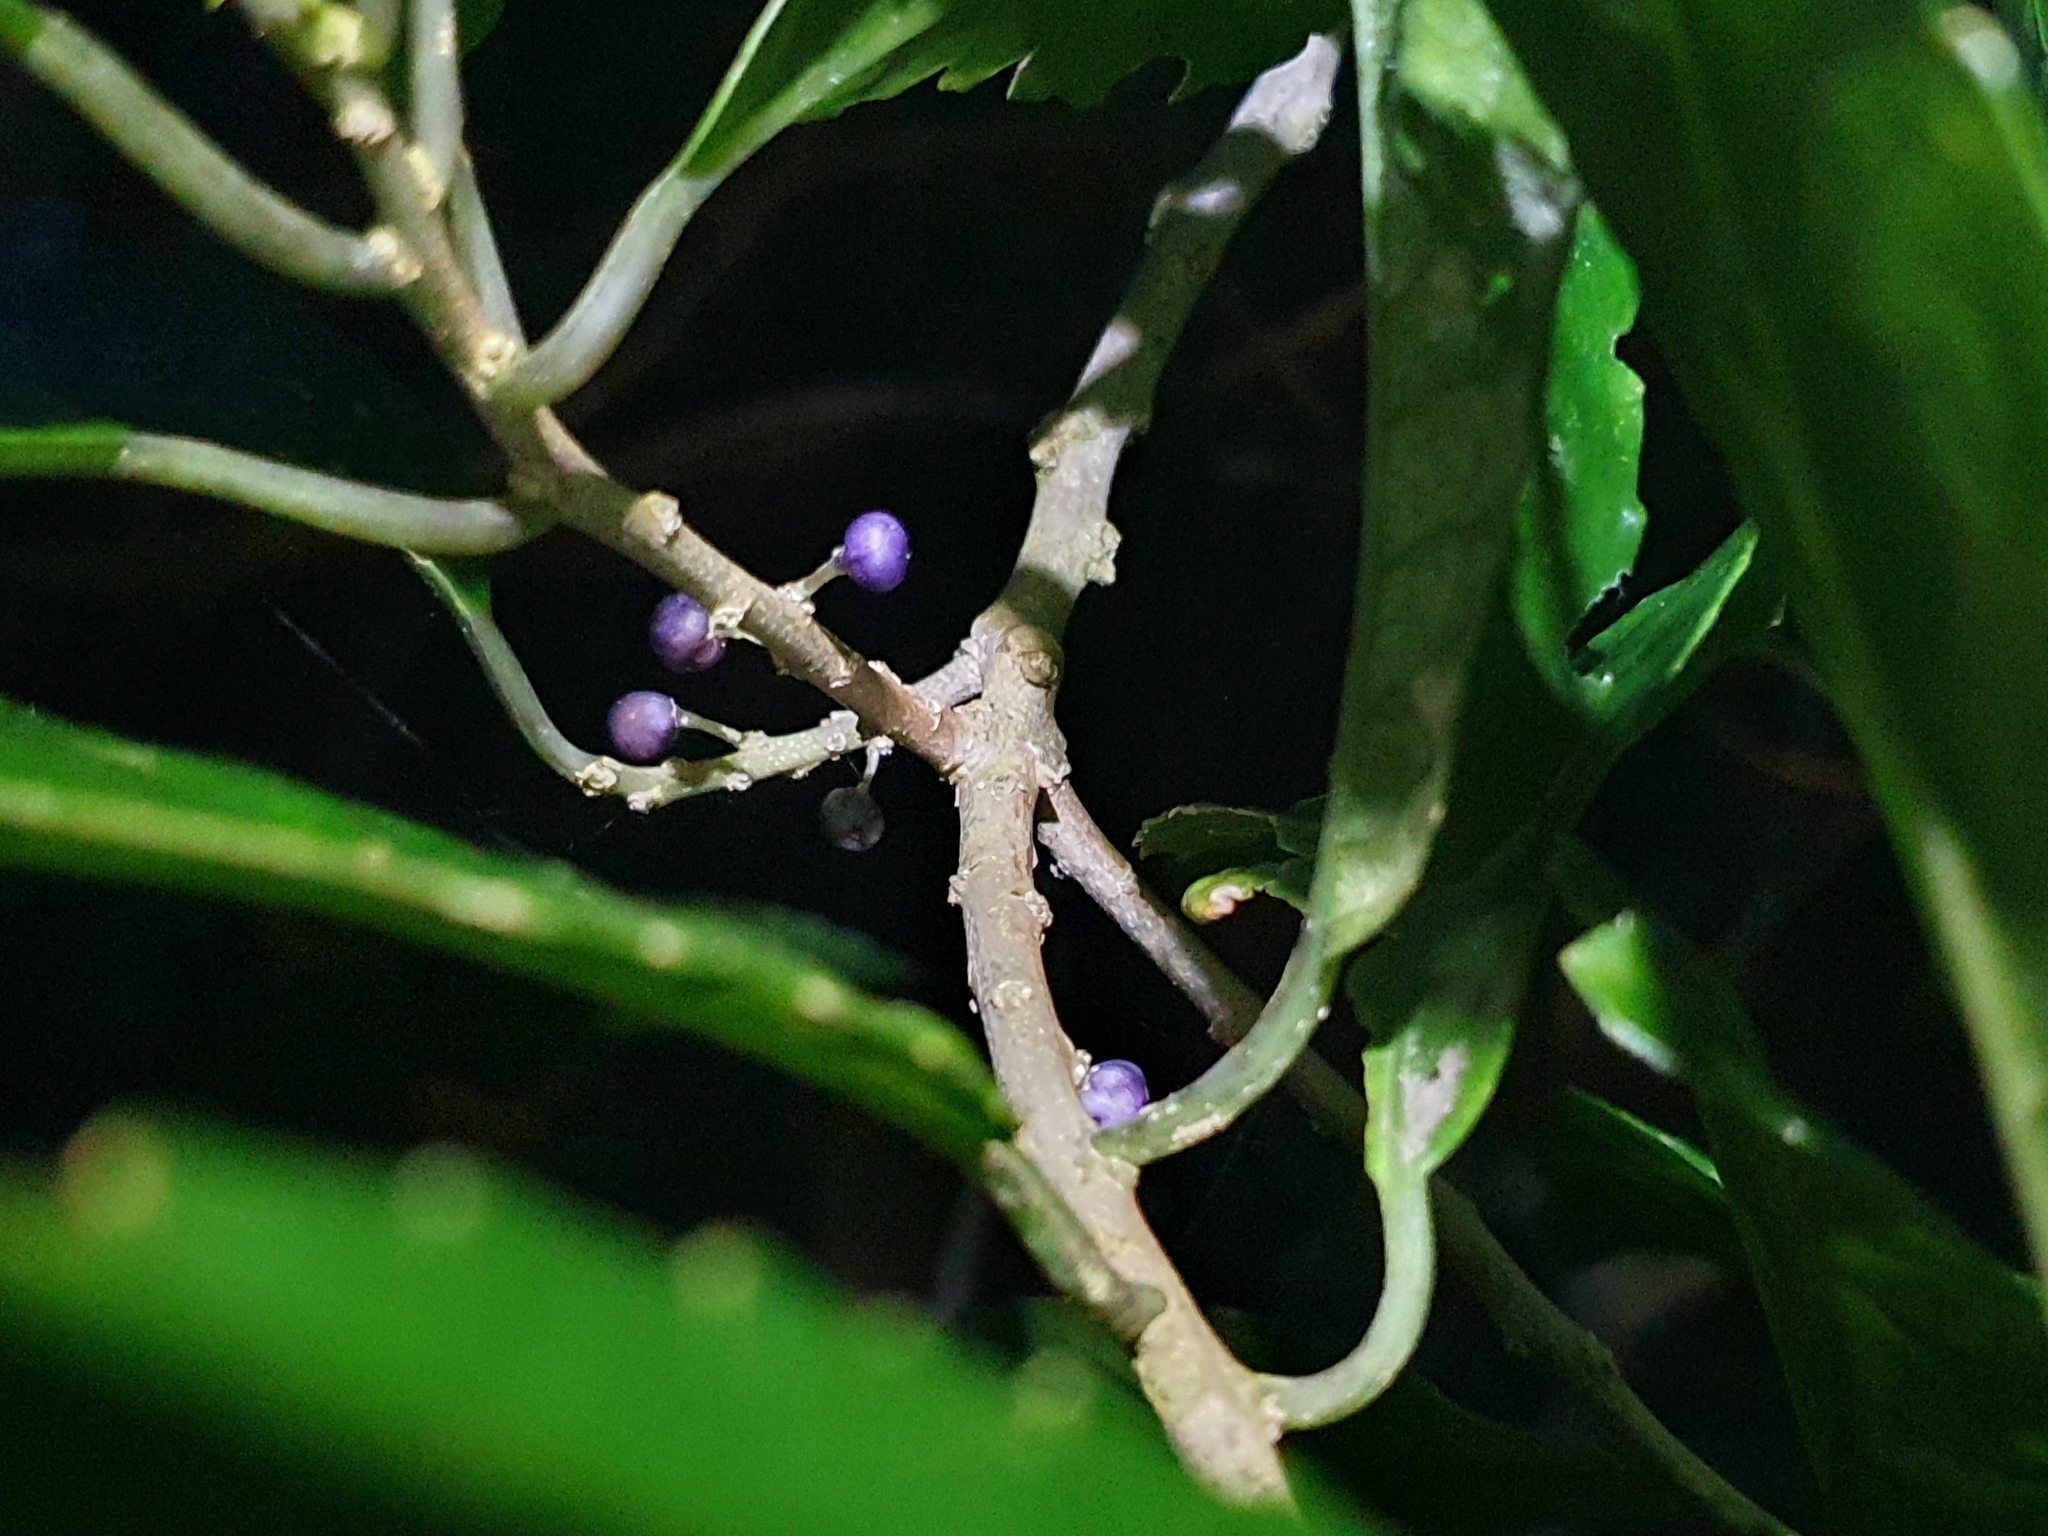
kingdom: Plantae
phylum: Tracheophyta
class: Magnoliopsida
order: Malpighiales
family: Violaceae
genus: Melicytus
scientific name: Melicytus ramiflorus
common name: Mahoe
